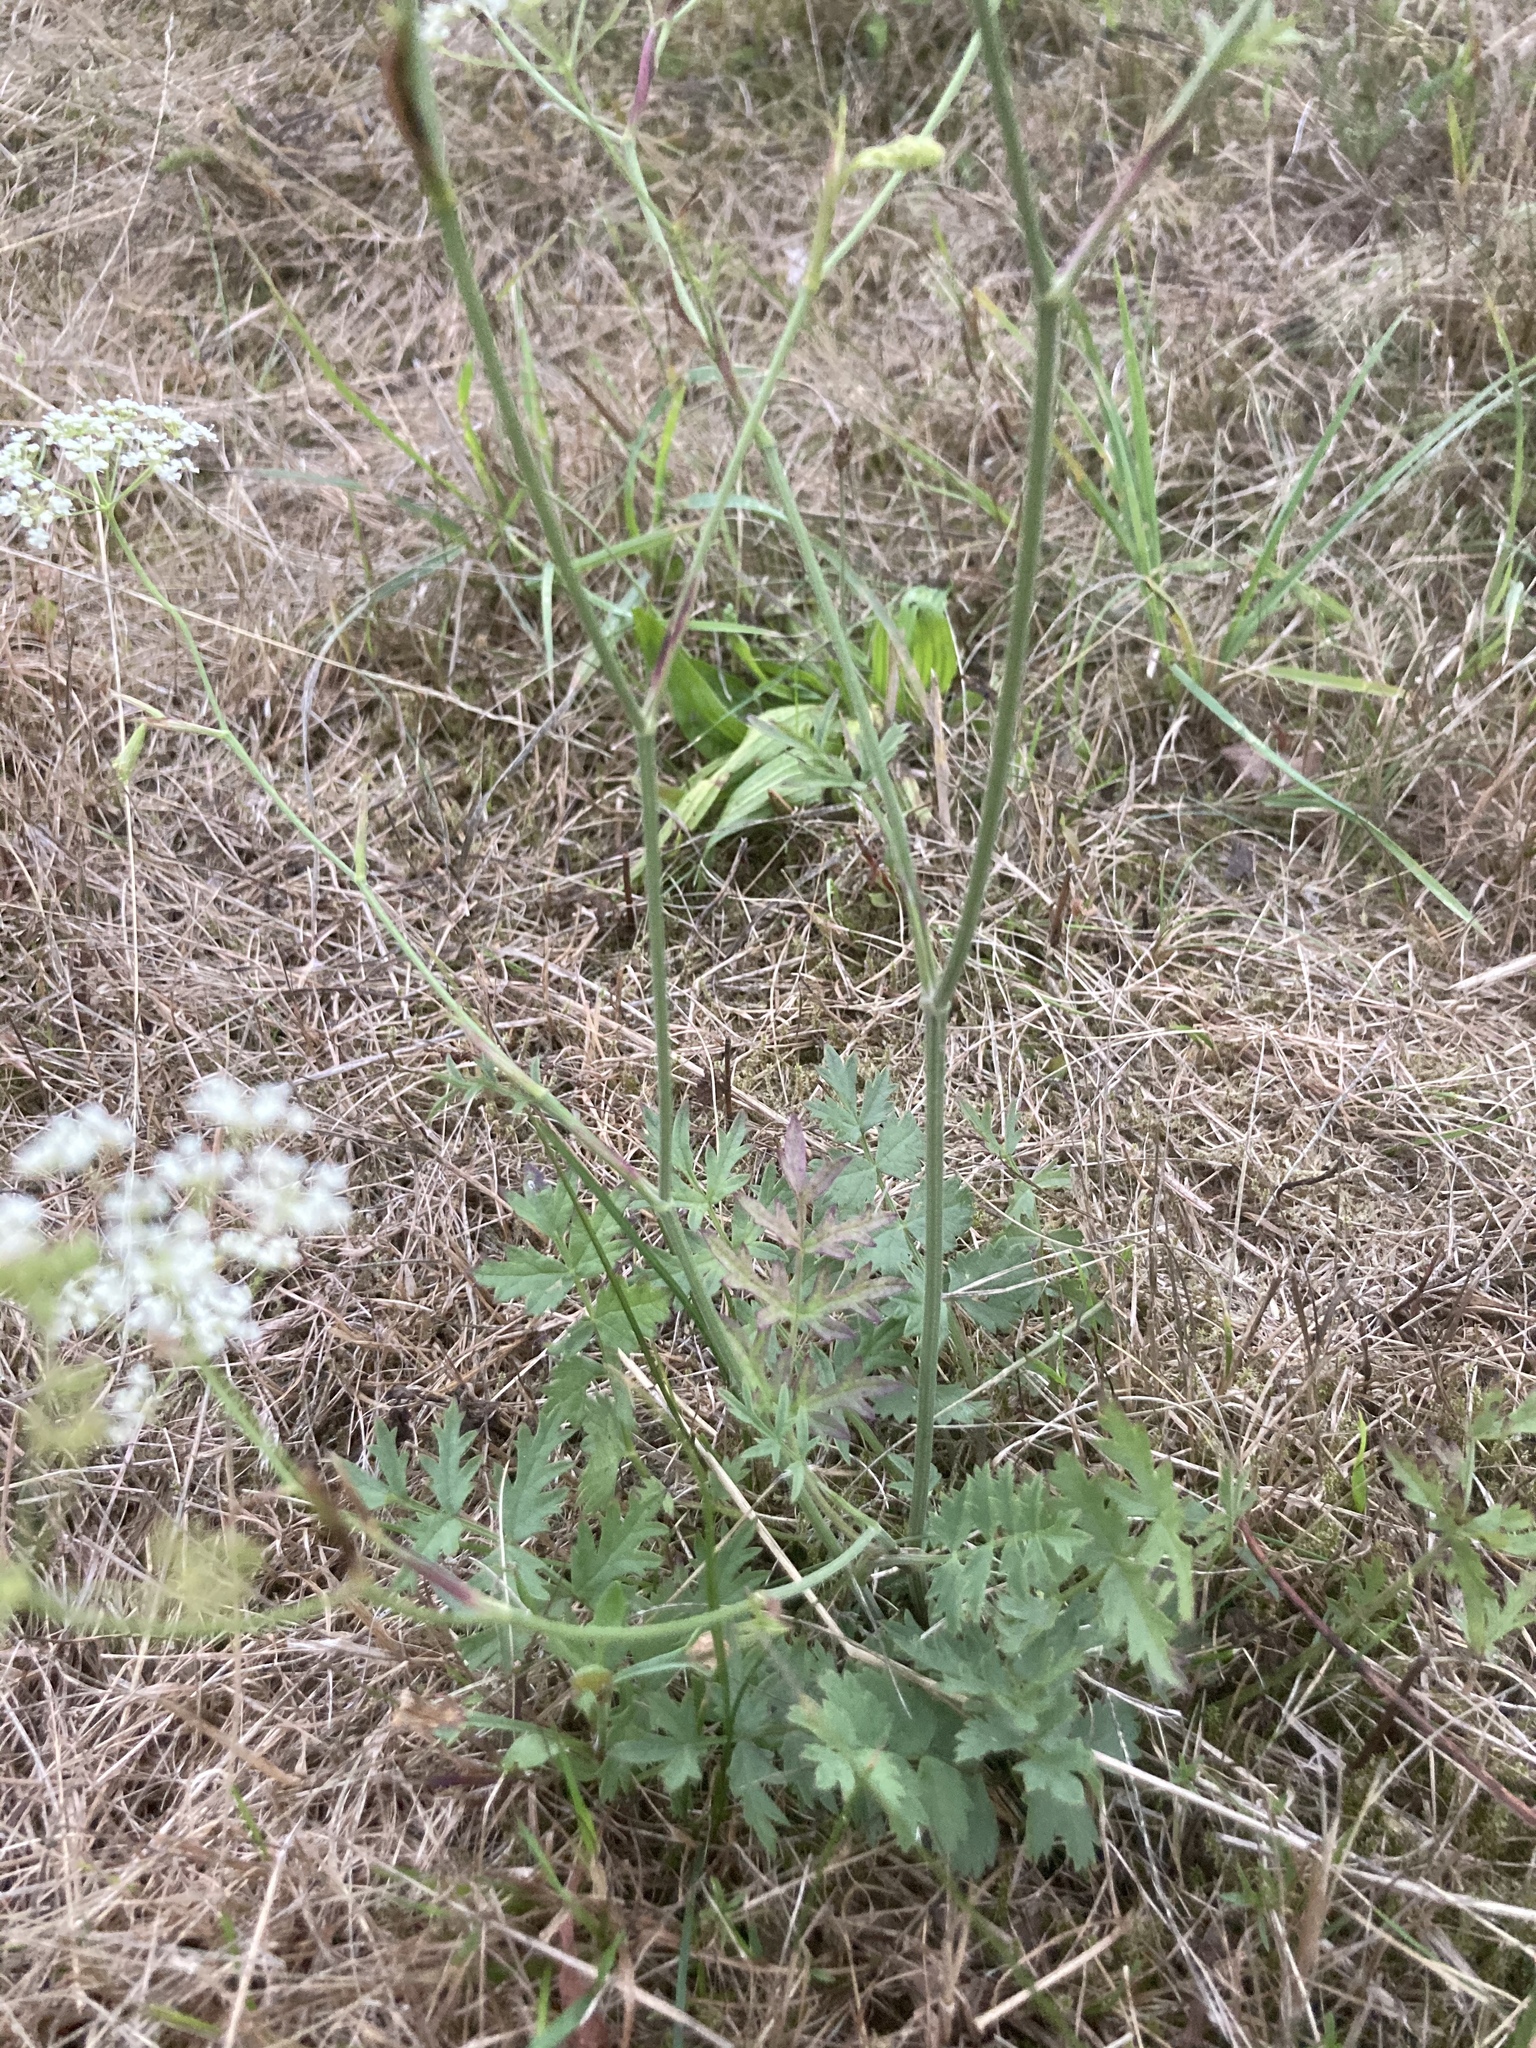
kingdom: Plantae
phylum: Tracheophyta
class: Magnoliopsida
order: Apiales
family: Apiaceae
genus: Pimpinella
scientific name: Pimpinella saxifraga
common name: Burnet-saxifrage
